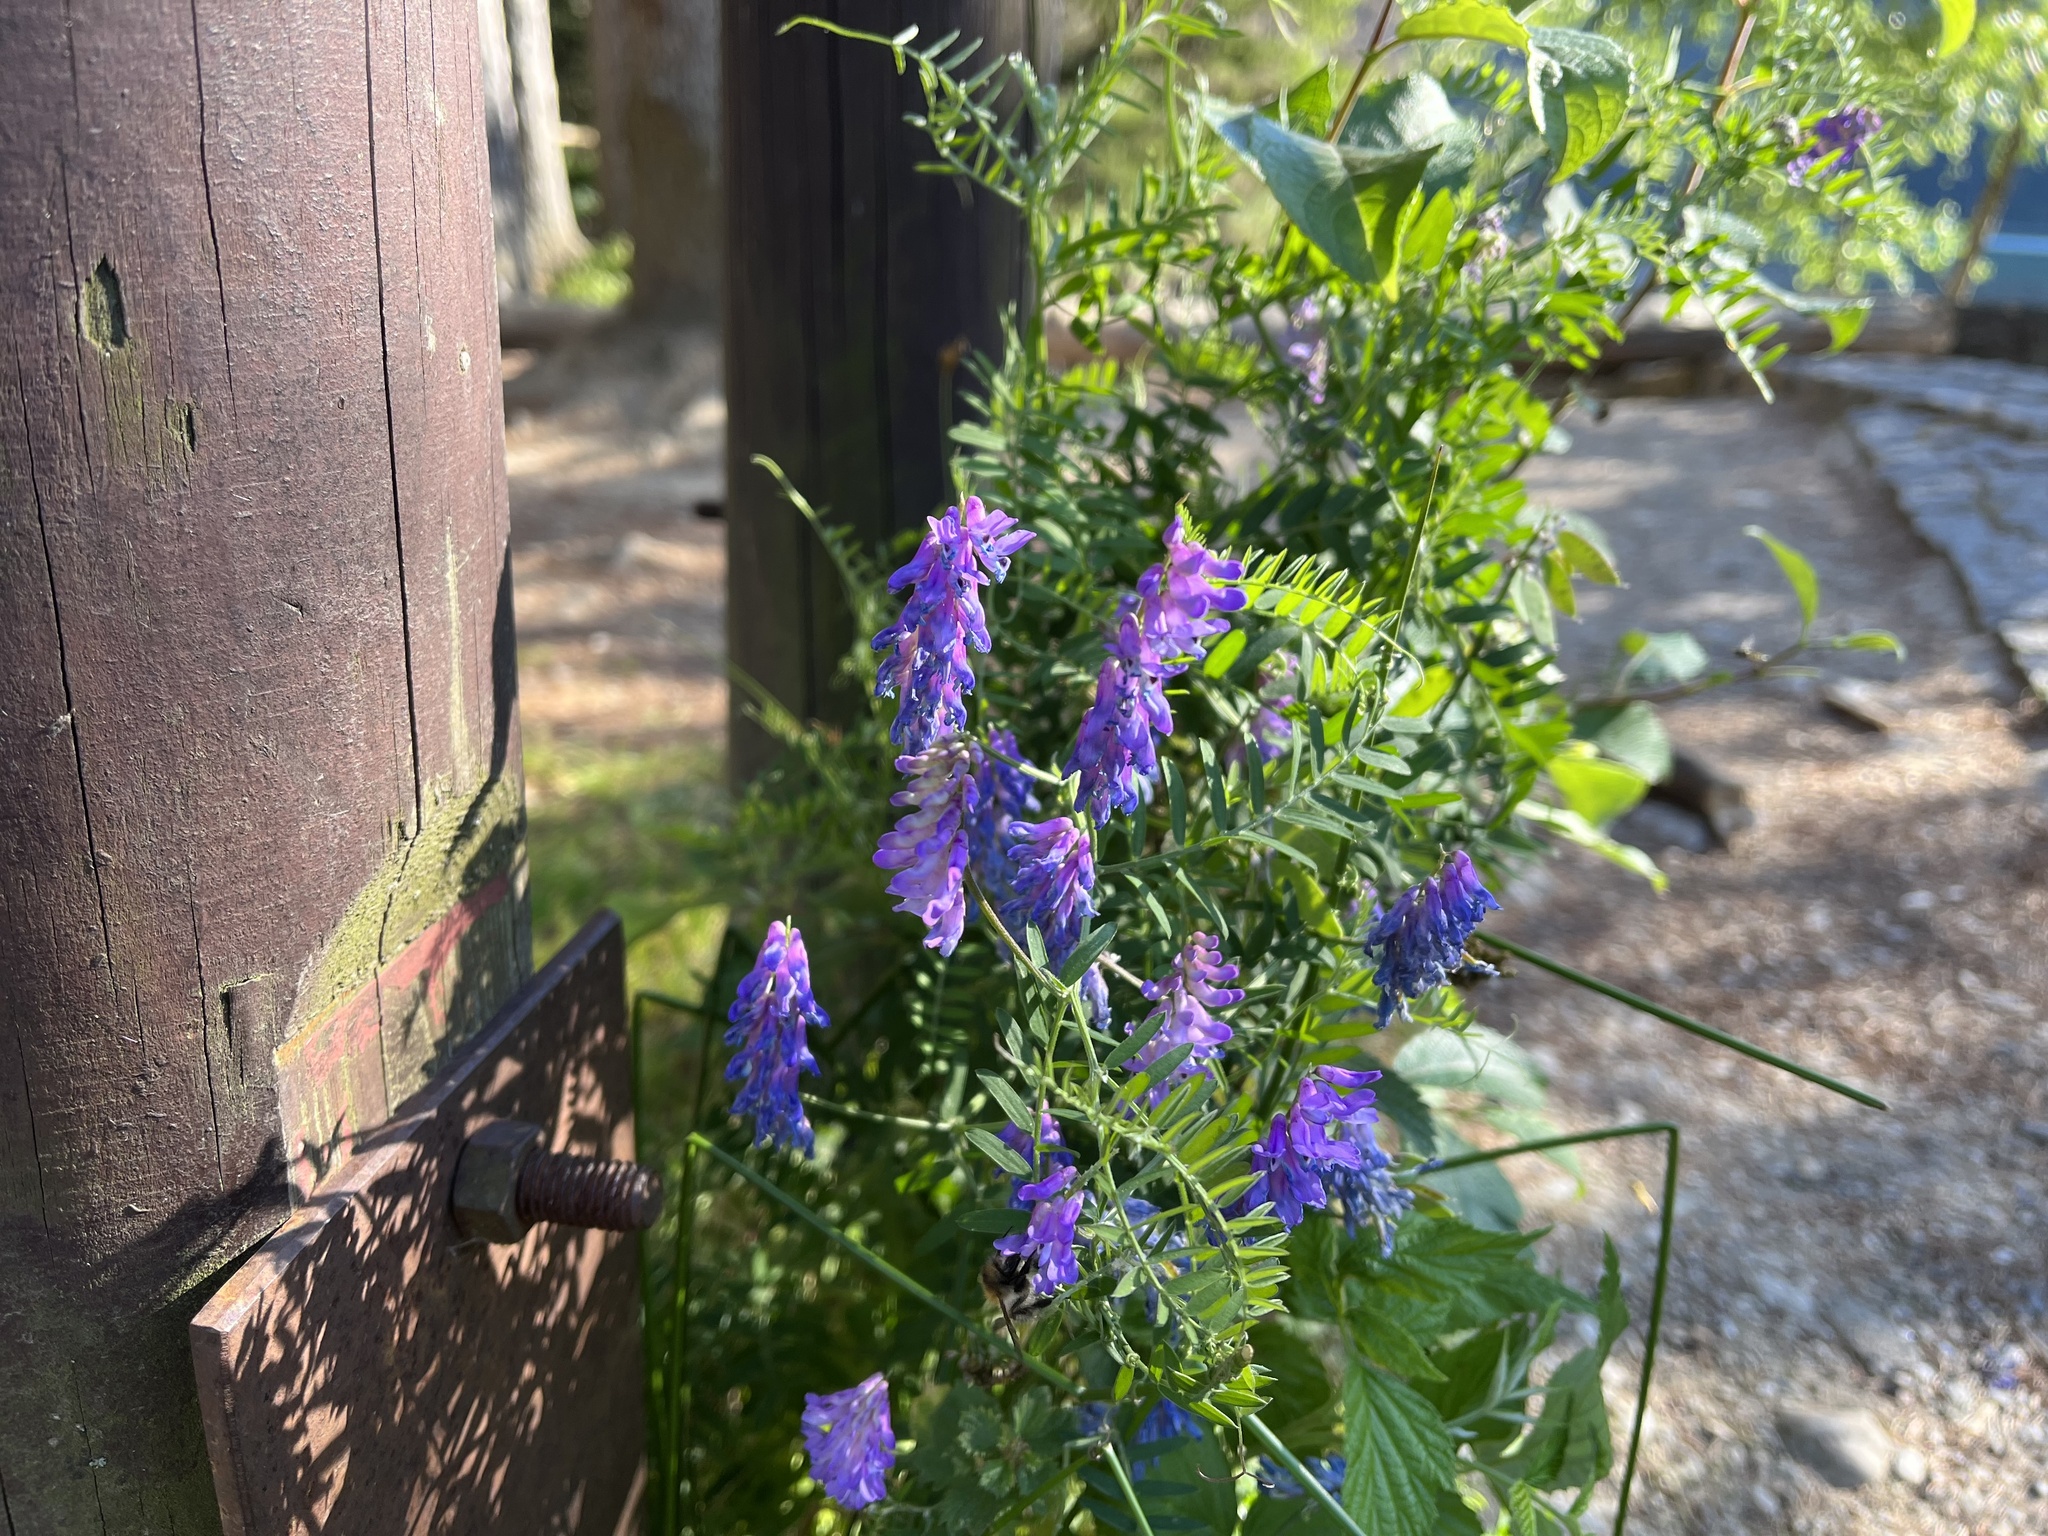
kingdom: Plantae
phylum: Tracheophyta
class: Magnoliopsida
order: Fabales
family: Fabaceae
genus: Vicia
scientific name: Vicia cracca
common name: Bird vetch
